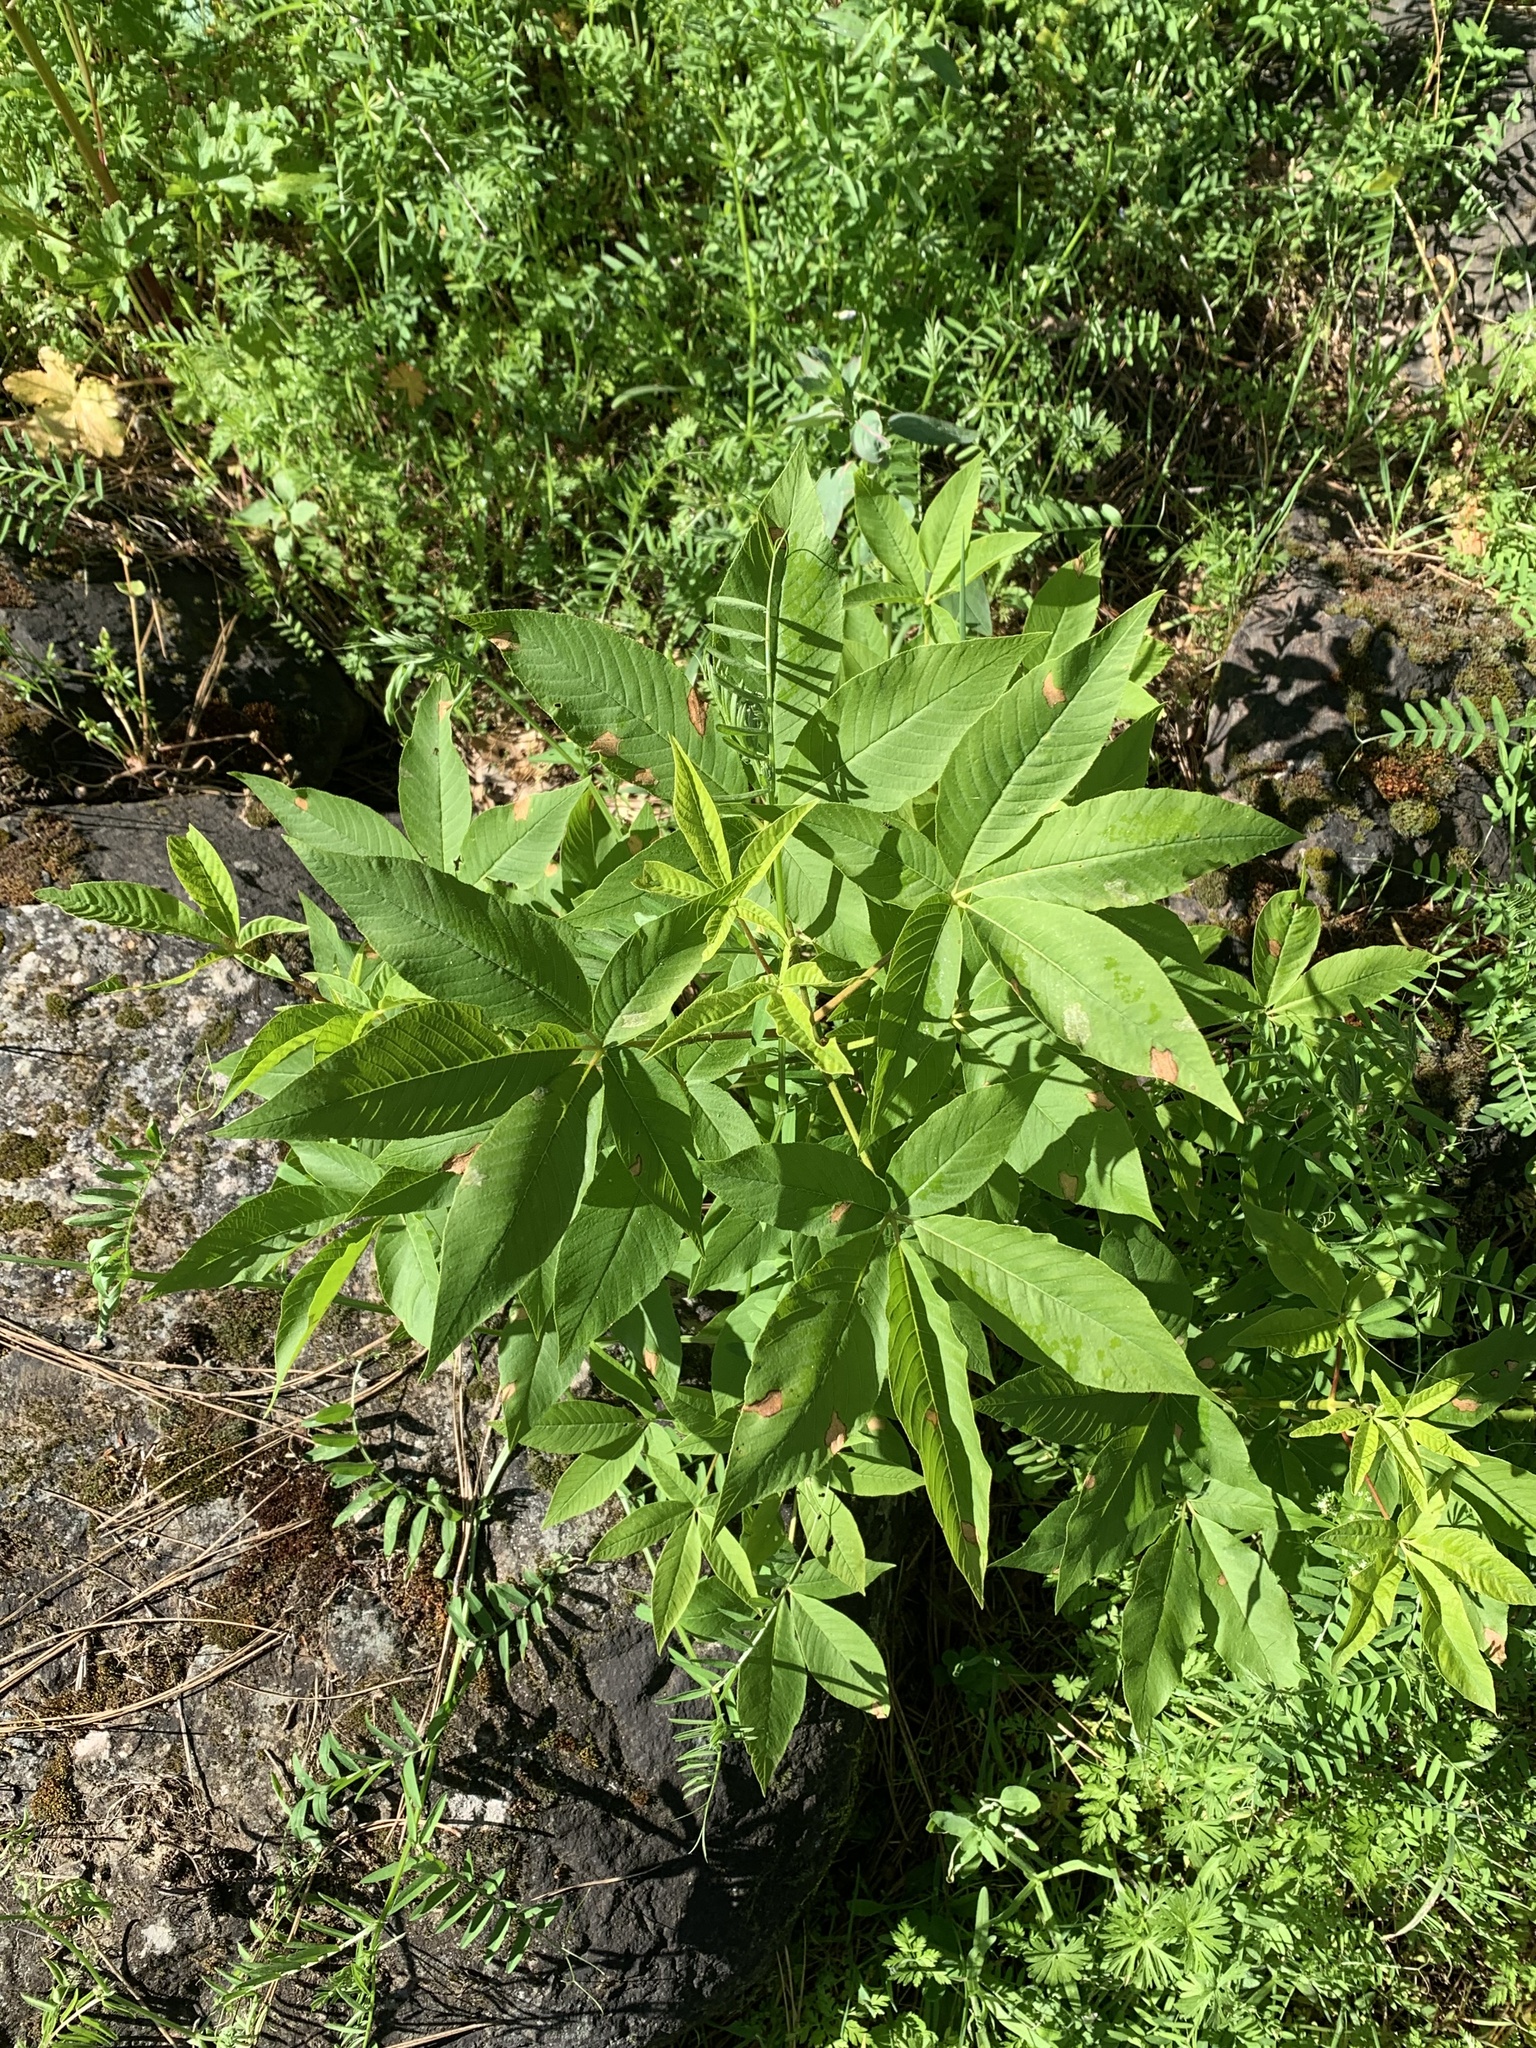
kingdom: Plantae
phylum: Tracheophyta
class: Magnoliopsida
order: Sapindales
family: Sapindaceae
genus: Aesculus
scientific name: Aesculus californica
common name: California buckeye
